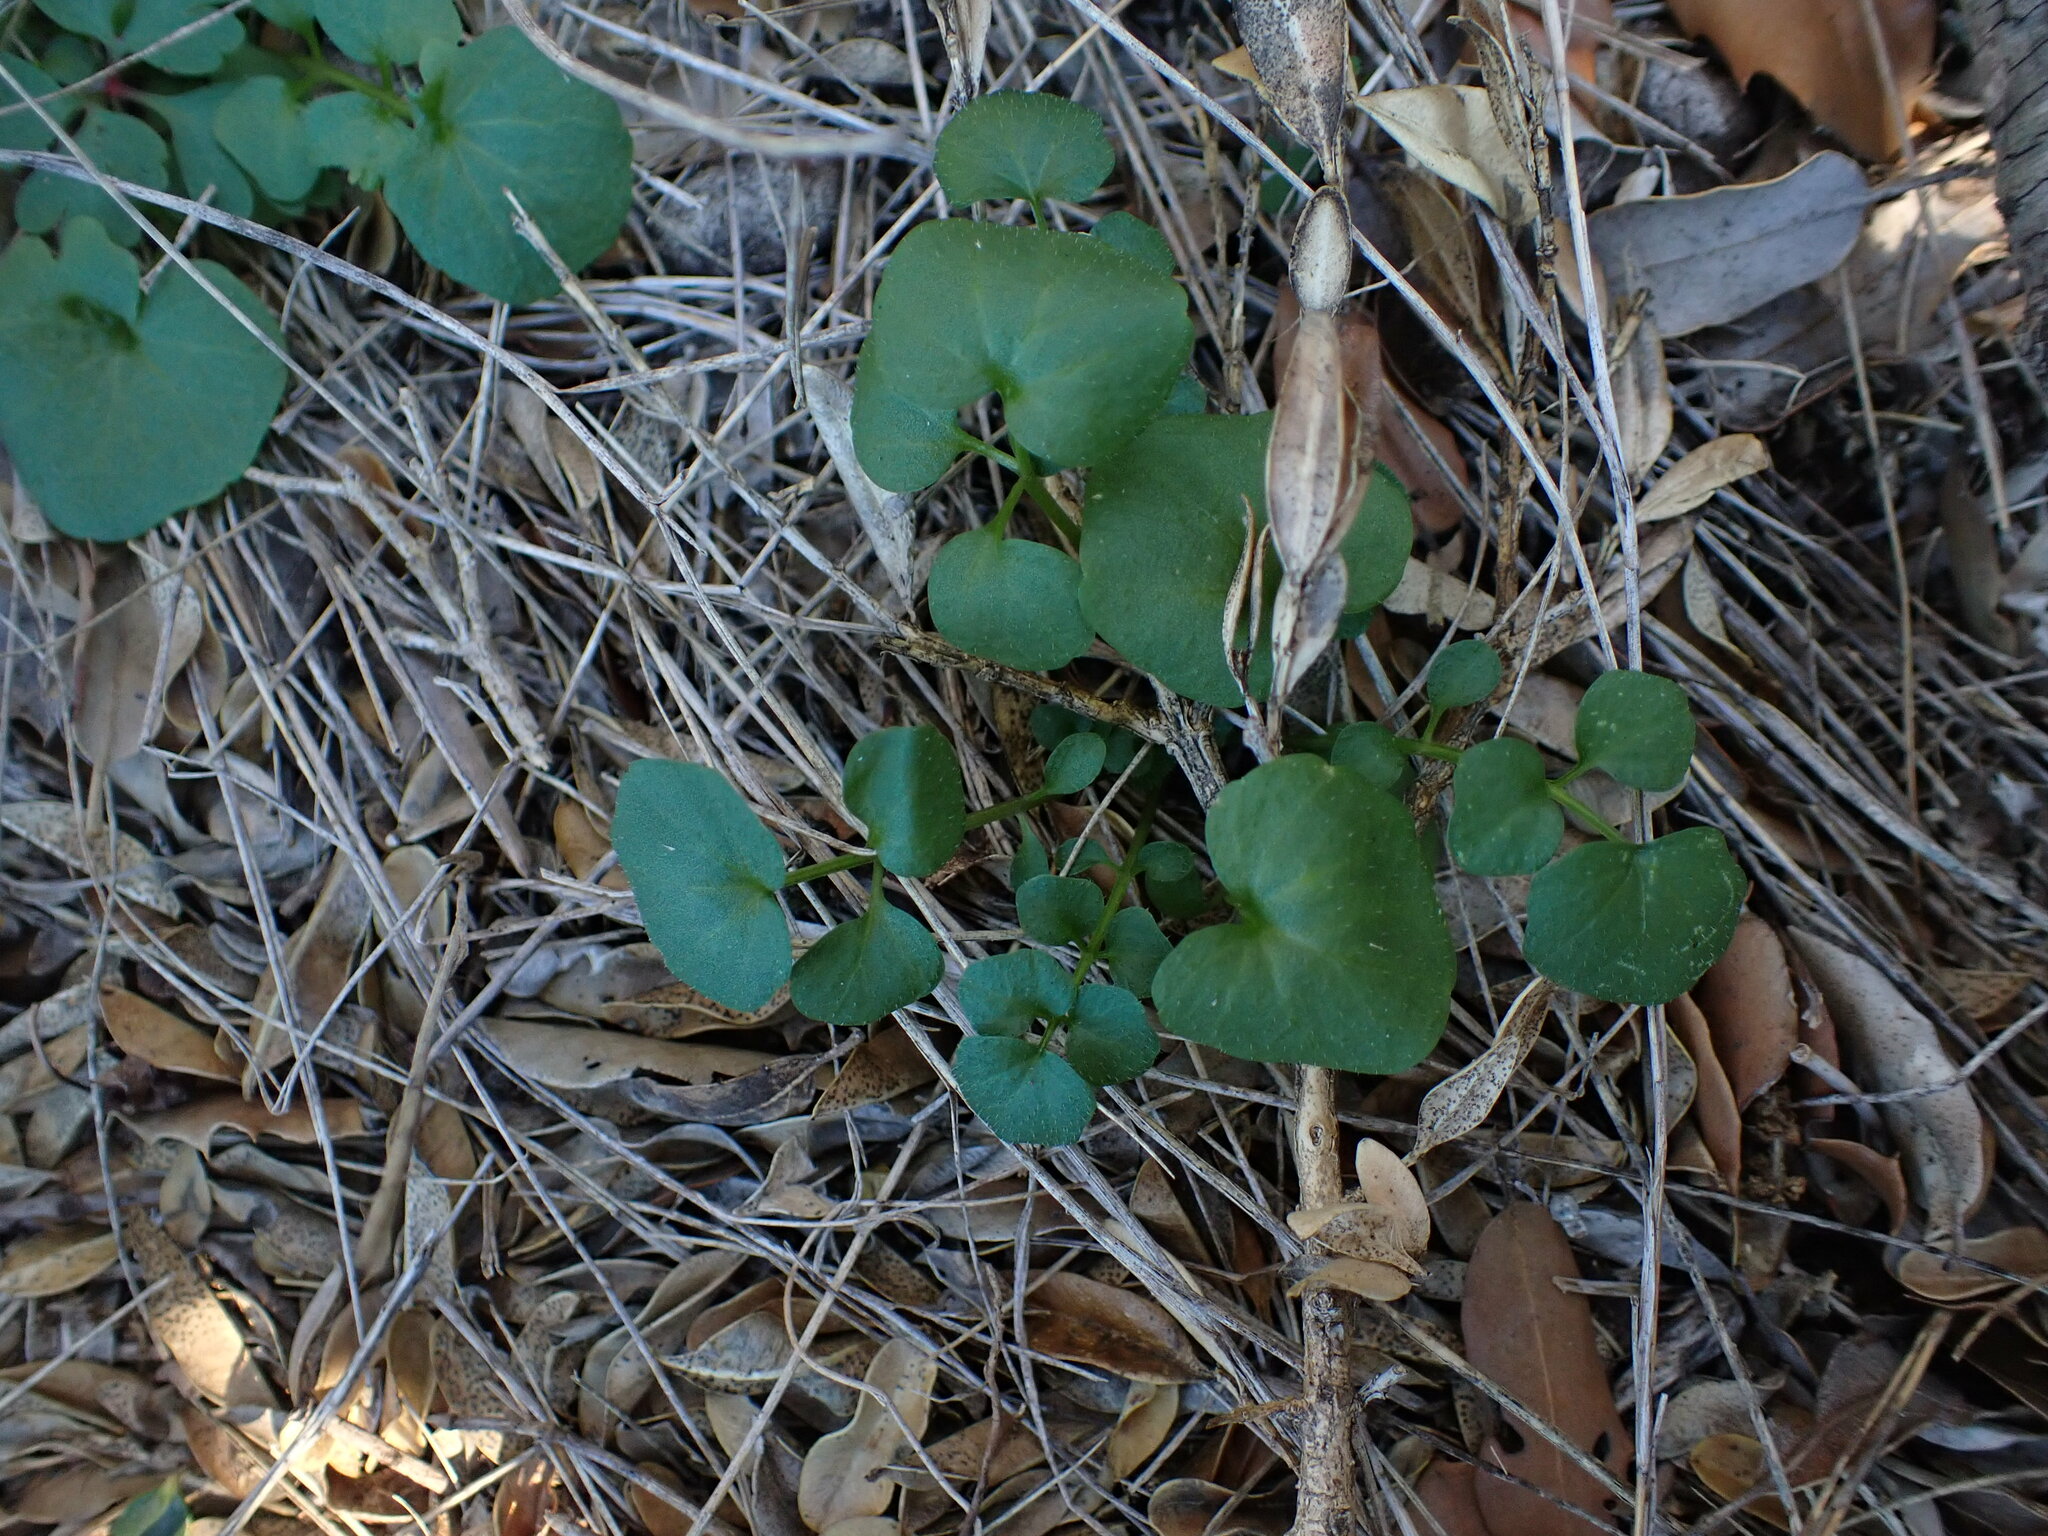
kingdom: Plantae
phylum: Tracheophyta
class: Magnoliopsida
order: Brassicales
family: Brassicaceae
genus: Cardamine
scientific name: Cardamine hirsuta
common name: Hairy bittercress
